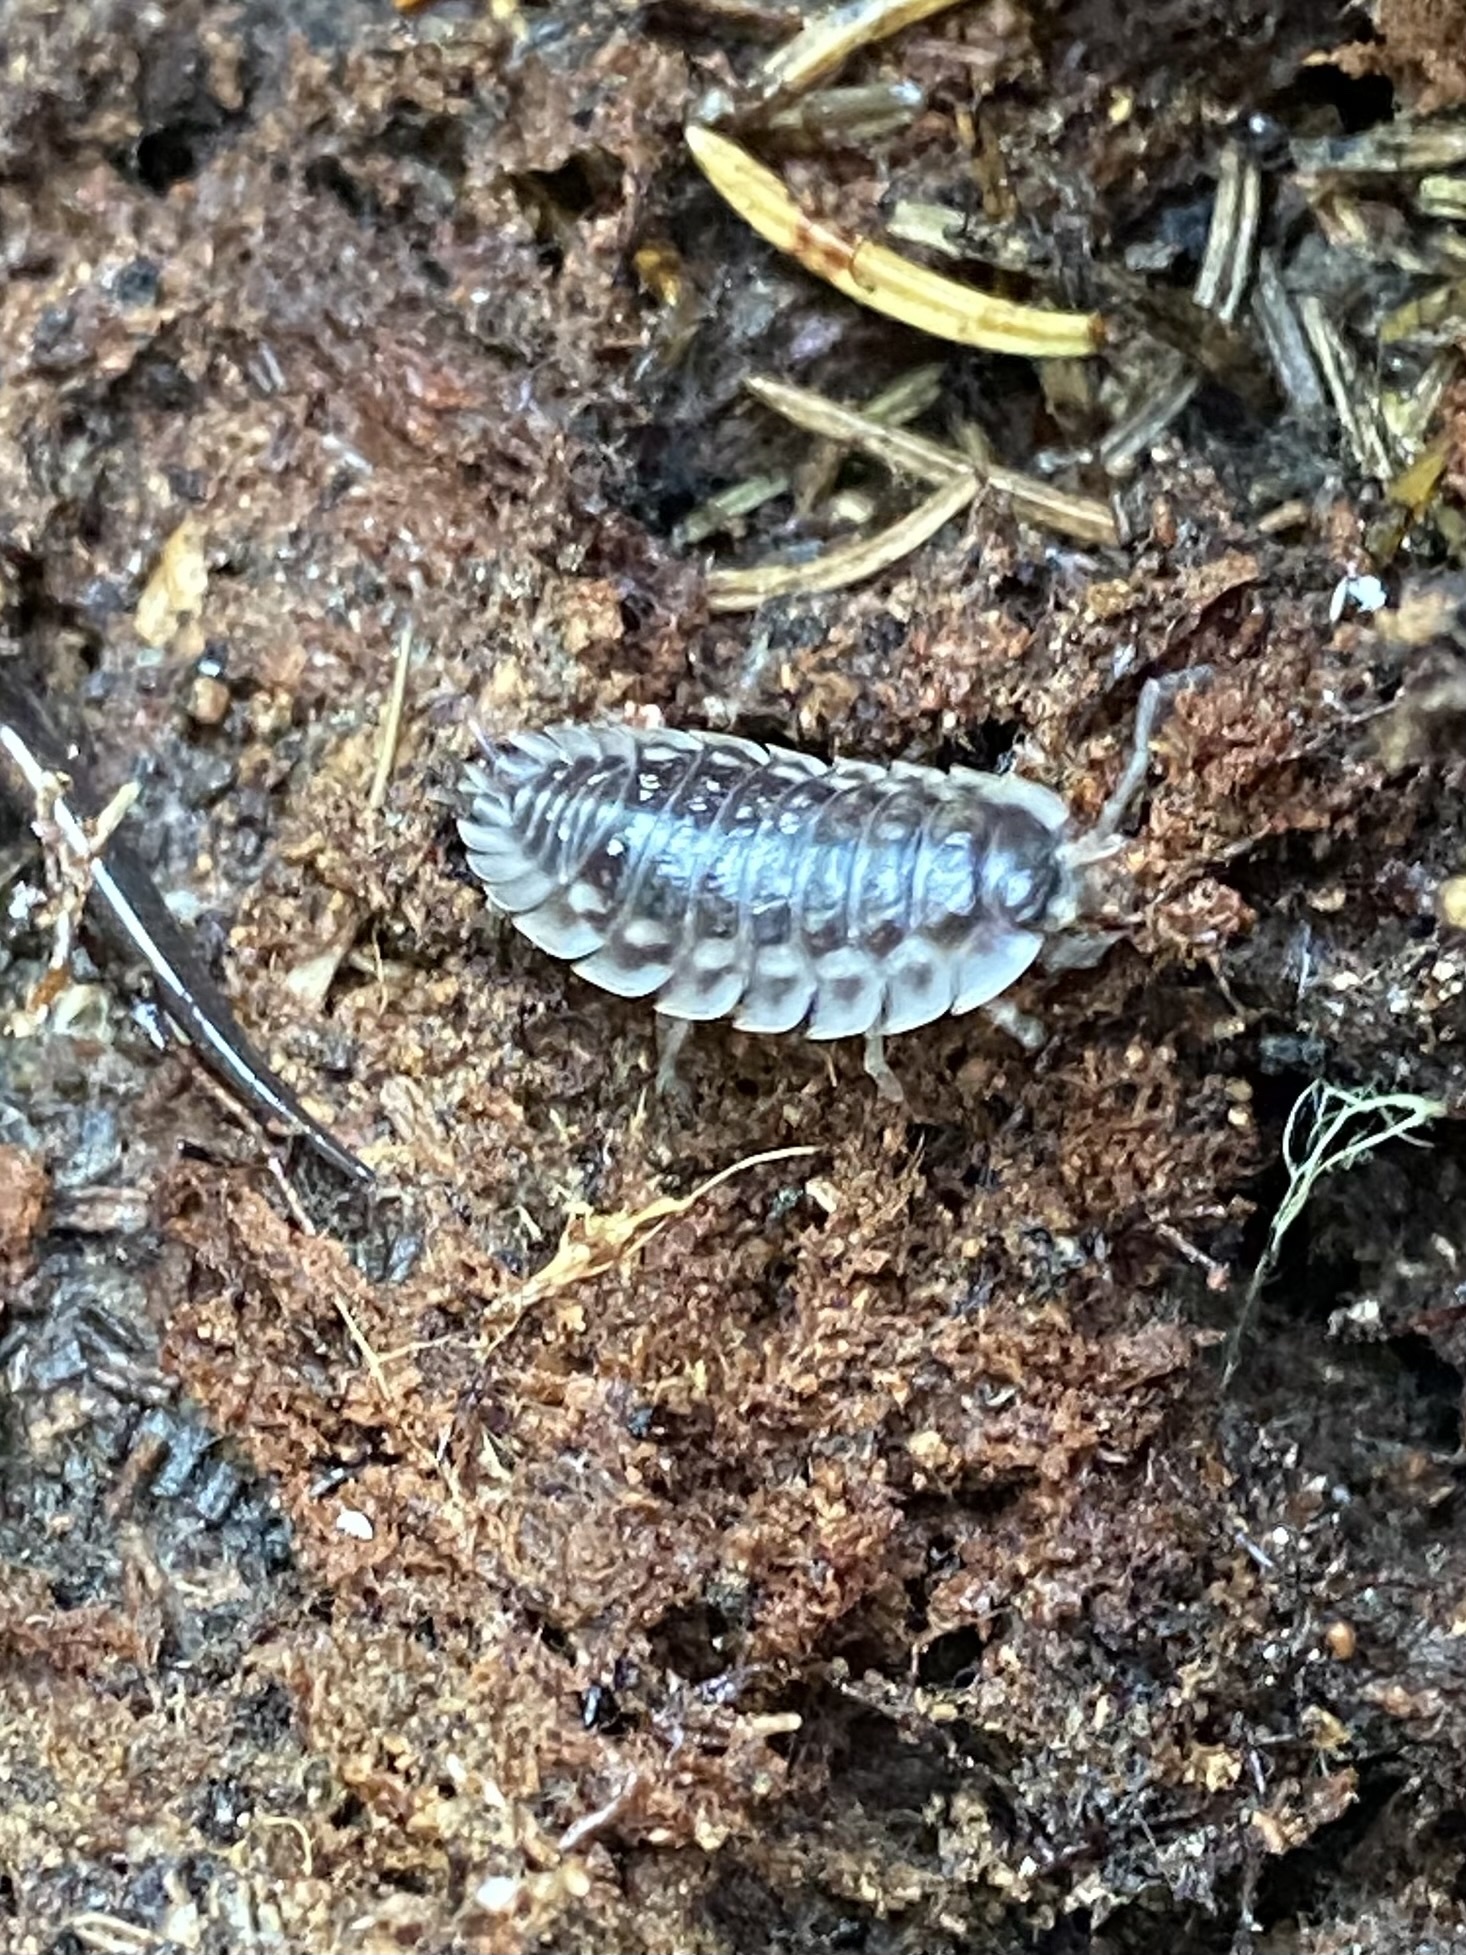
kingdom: Animalia
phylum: Arthropoda
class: Malacostraca
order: Isopoda
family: Oniscidae
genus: Oniscus
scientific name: Oniscus asellus
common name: Common shiny woodlouse
